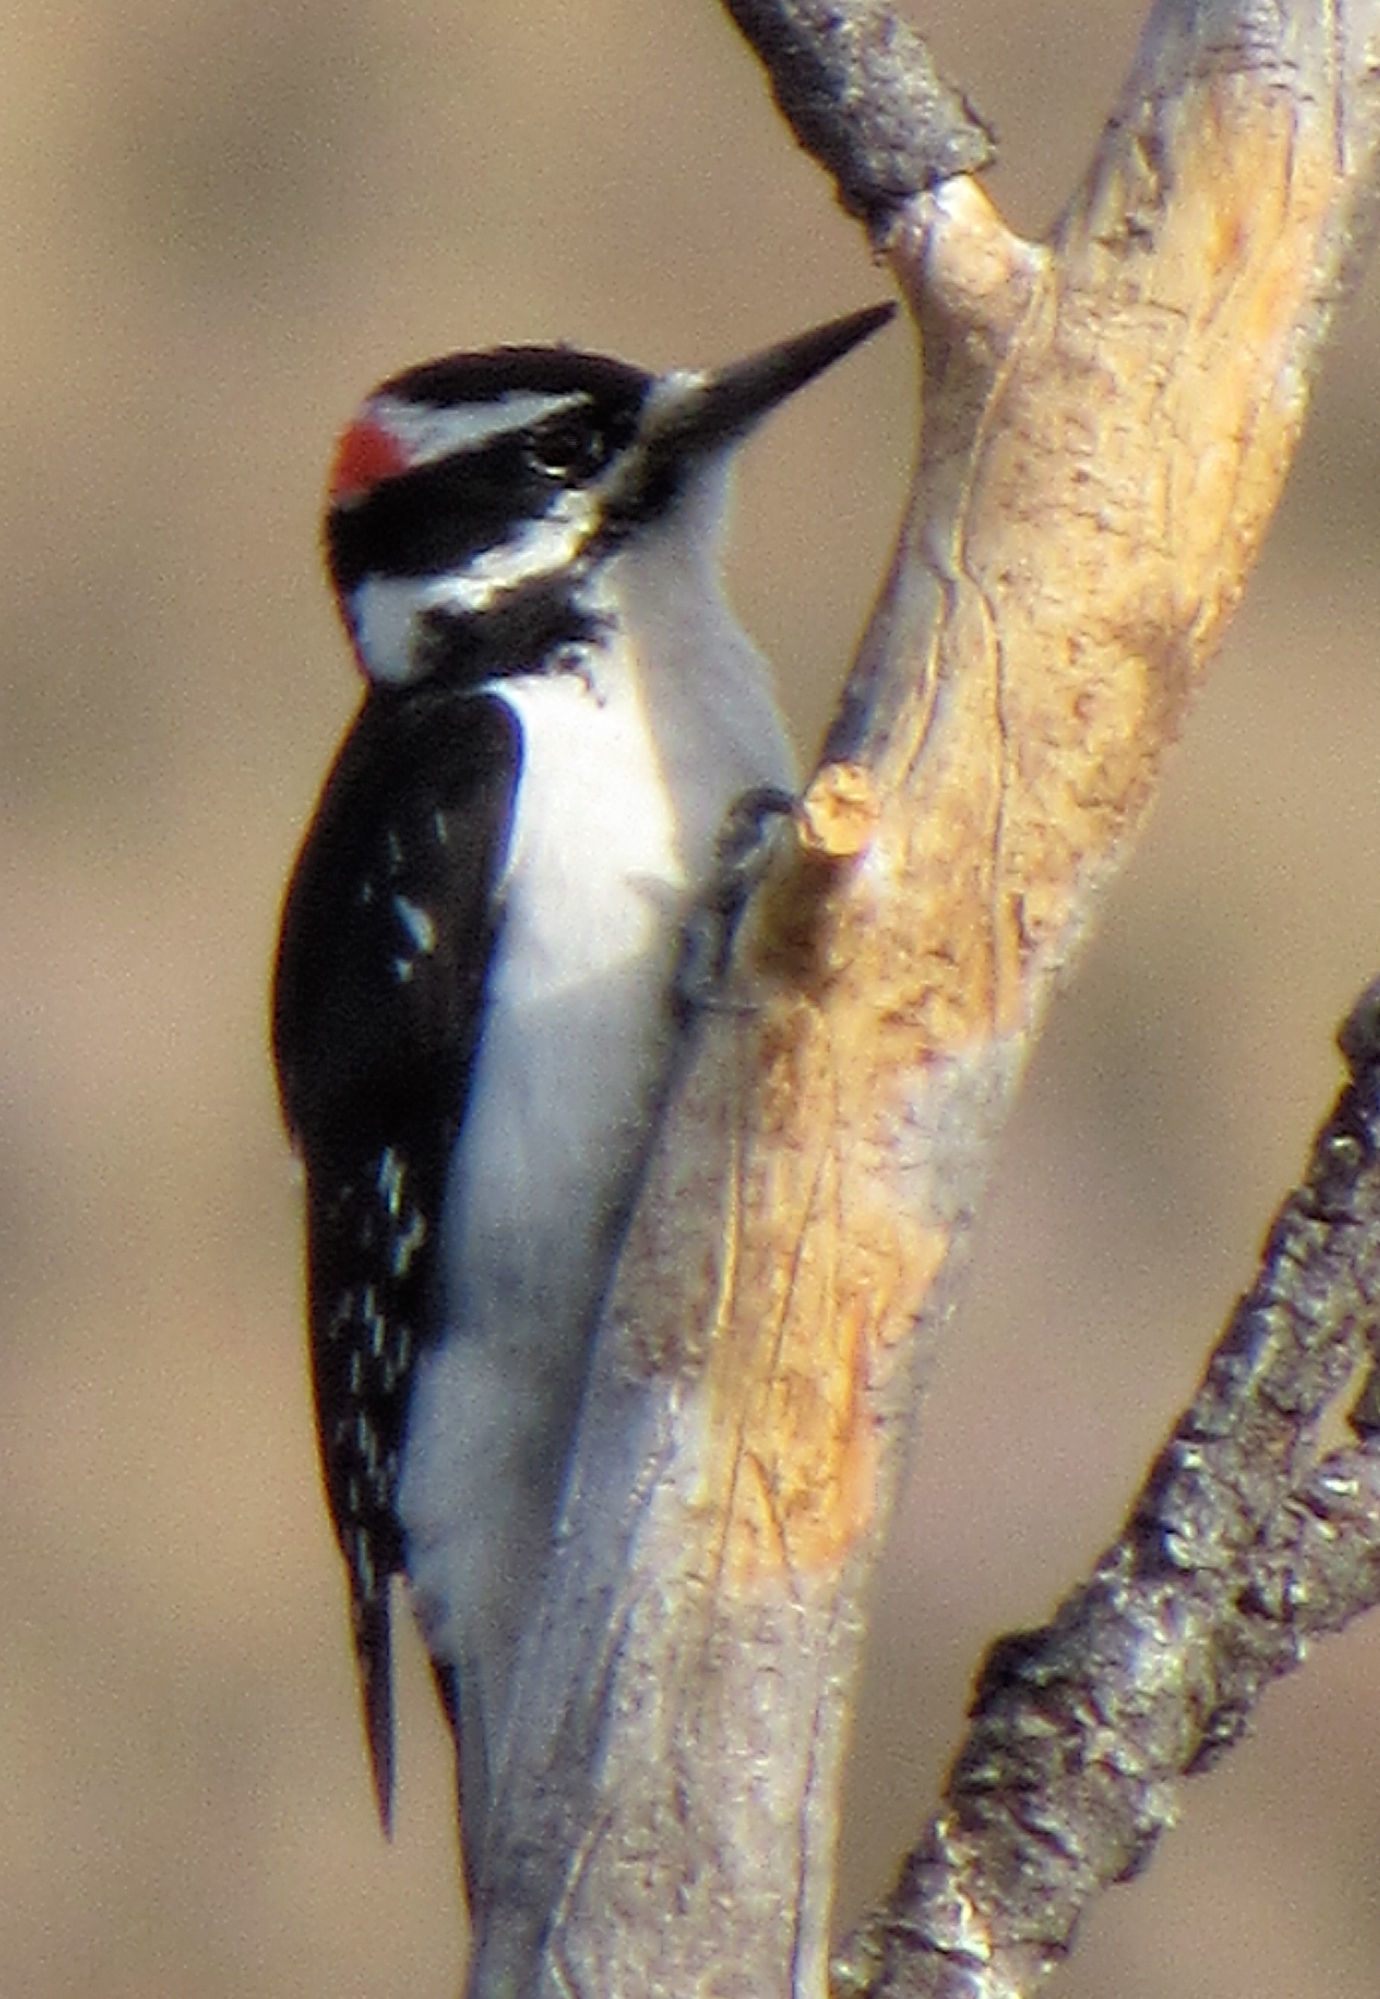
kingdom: Animalia
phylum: Chordata
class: Aves
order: Piciformes
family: Picidae
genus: Leuconotopicus
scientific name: Leuconotopicus villosus
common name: Hairy woodpecker
